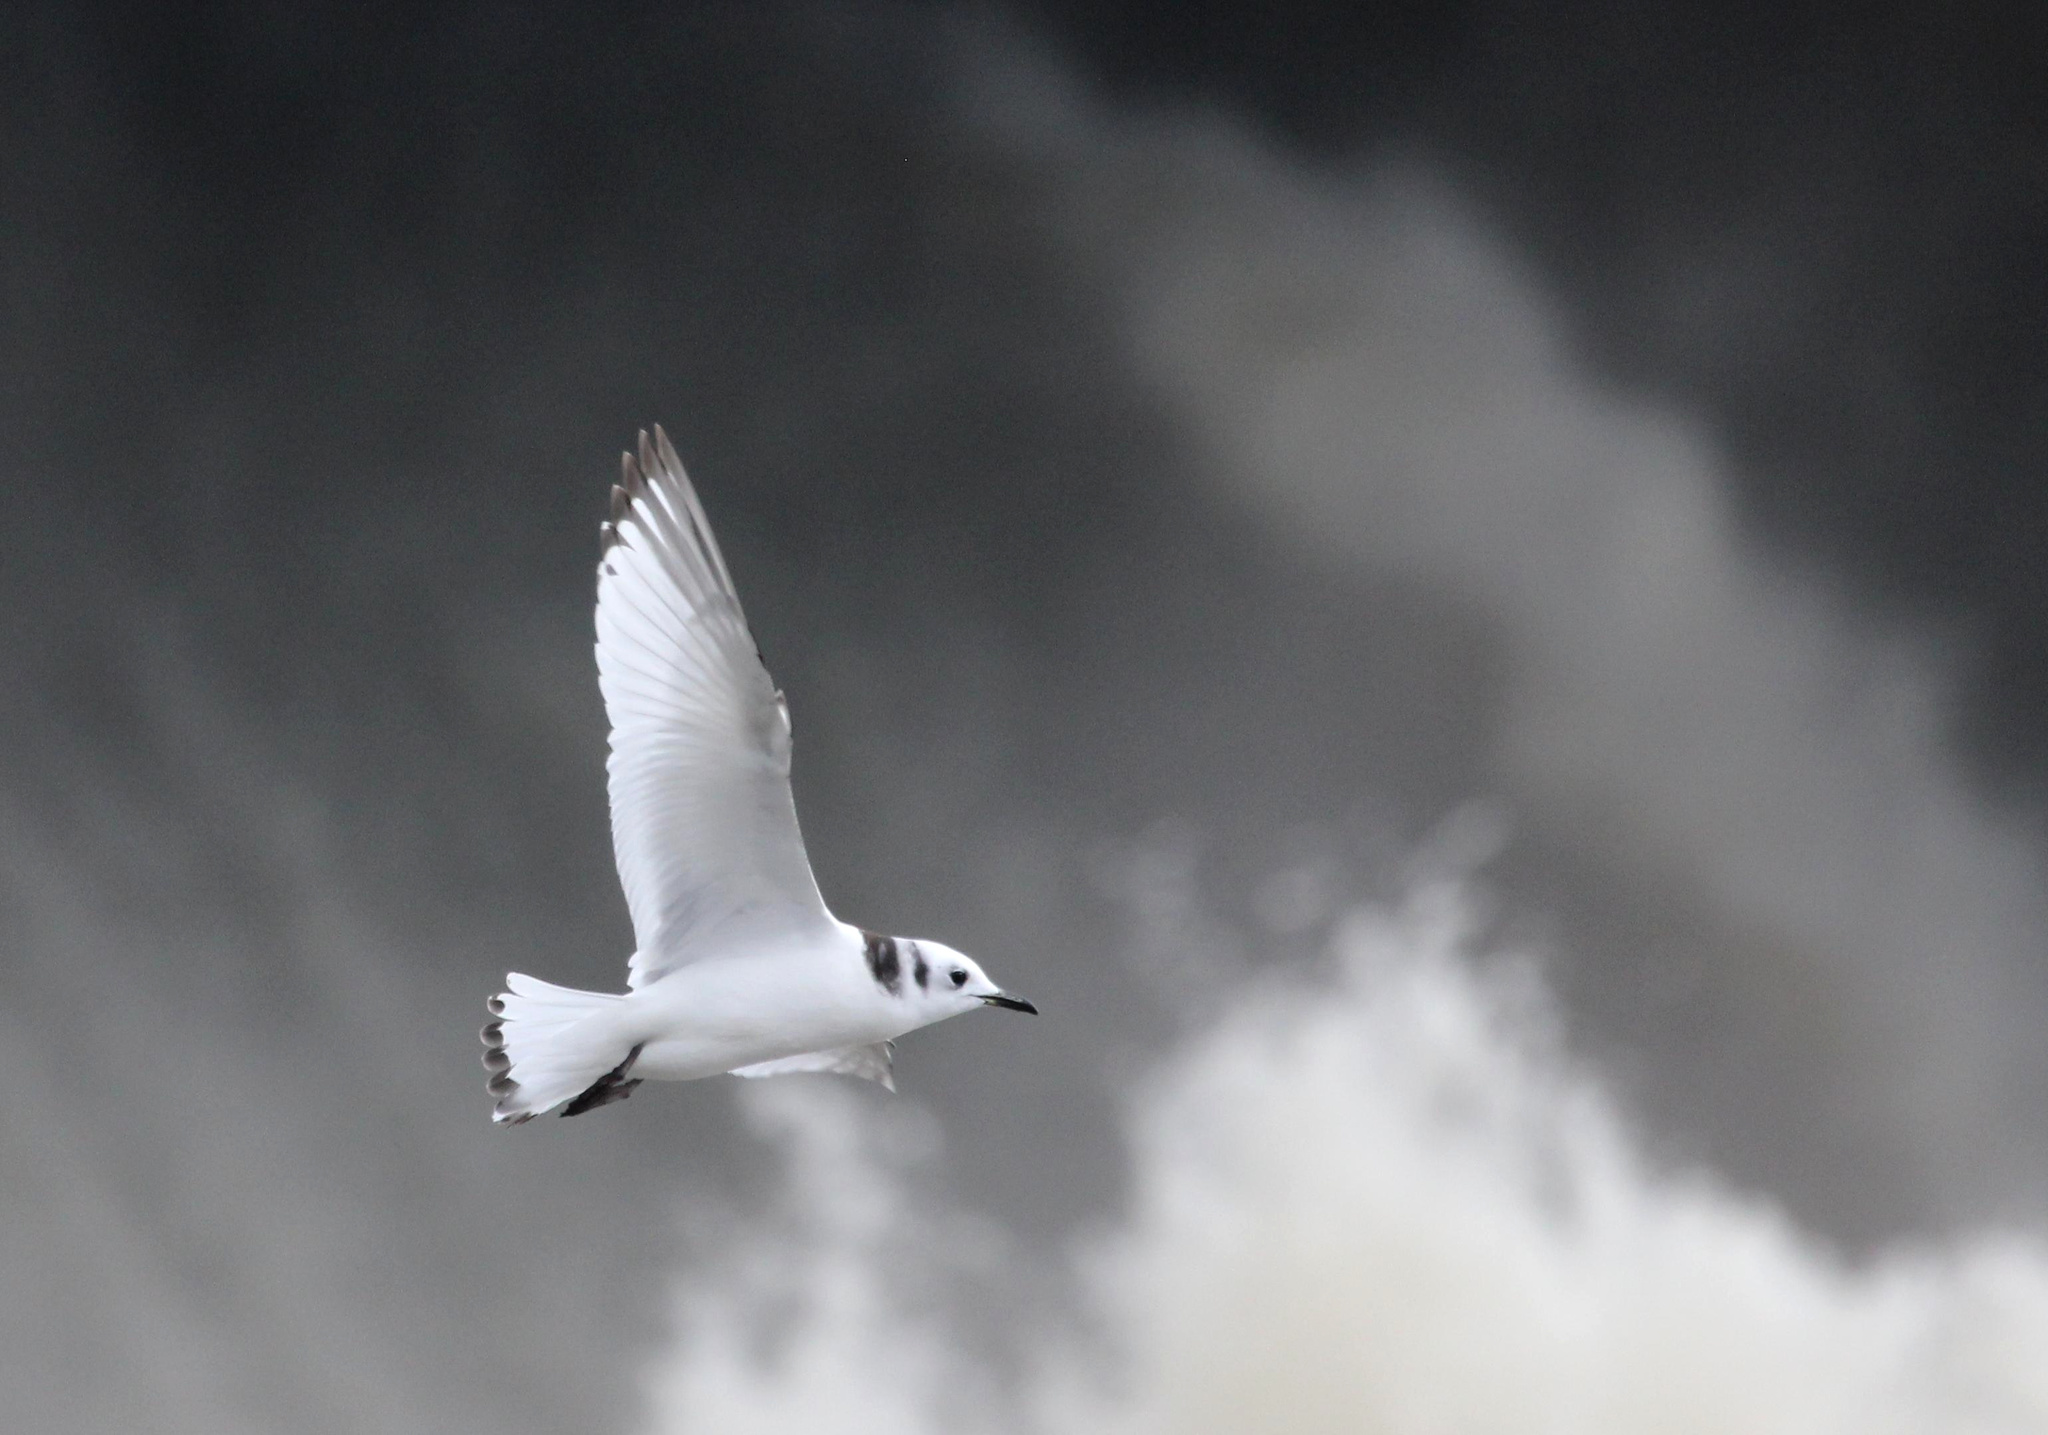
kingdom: Animalia
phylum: Chordata
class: Aves
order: Charadriiformes
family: Laridae
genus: Rissa
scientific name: Rissa tridactyla
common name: Black-legged kittiwake
